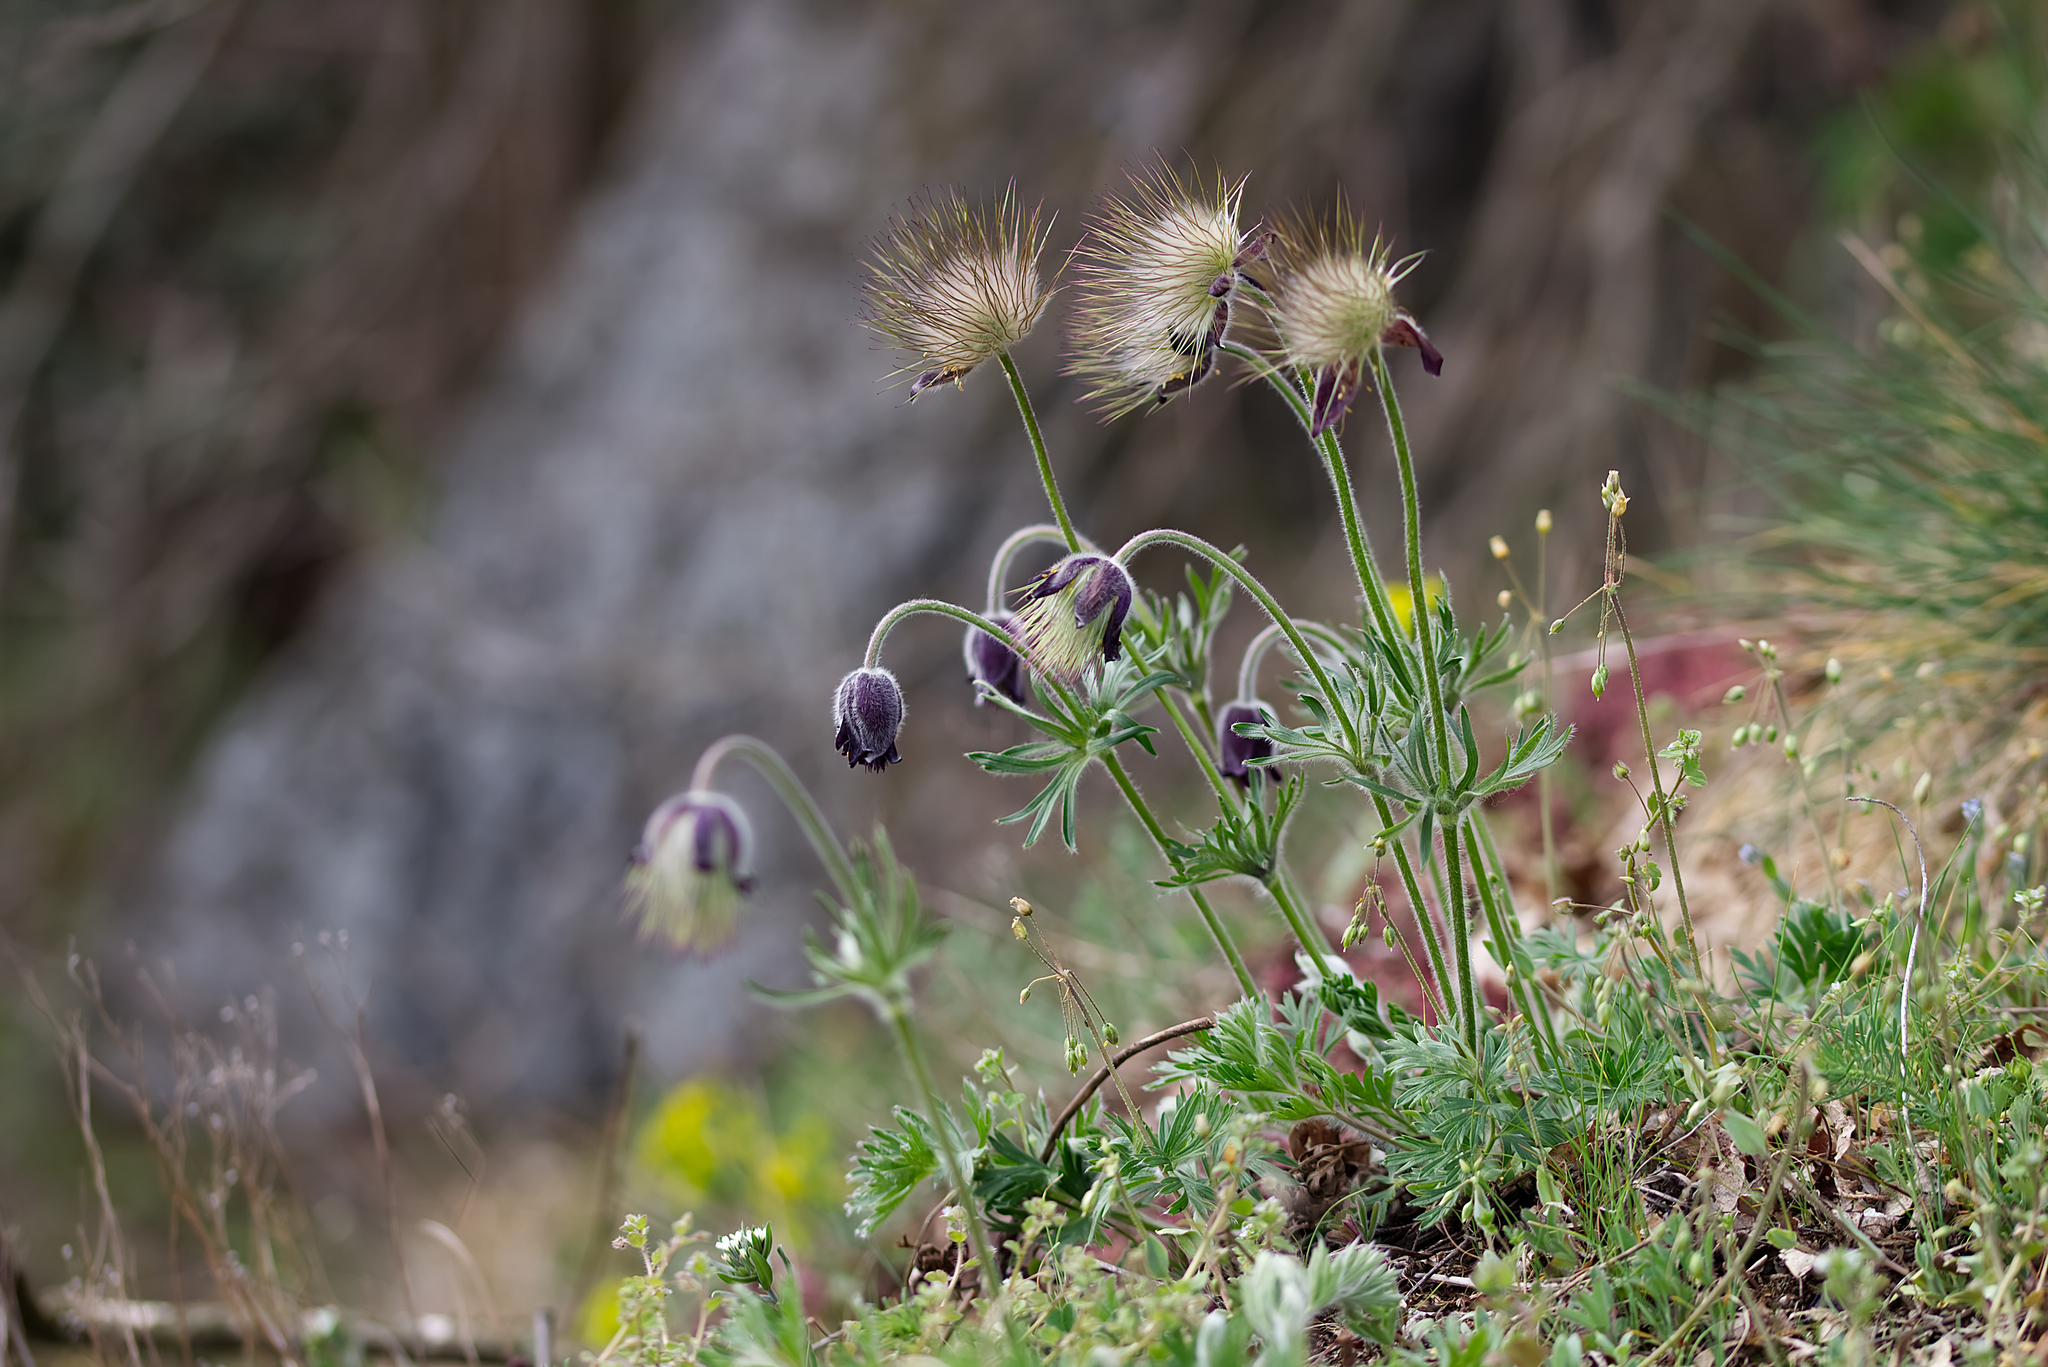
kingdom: Plantae
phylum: Tracheophyta
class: Magnoliopsida
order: Ranunculales
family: Ranunculaceae
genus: Pulsatilla
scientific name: Pulsatilla pratensis
